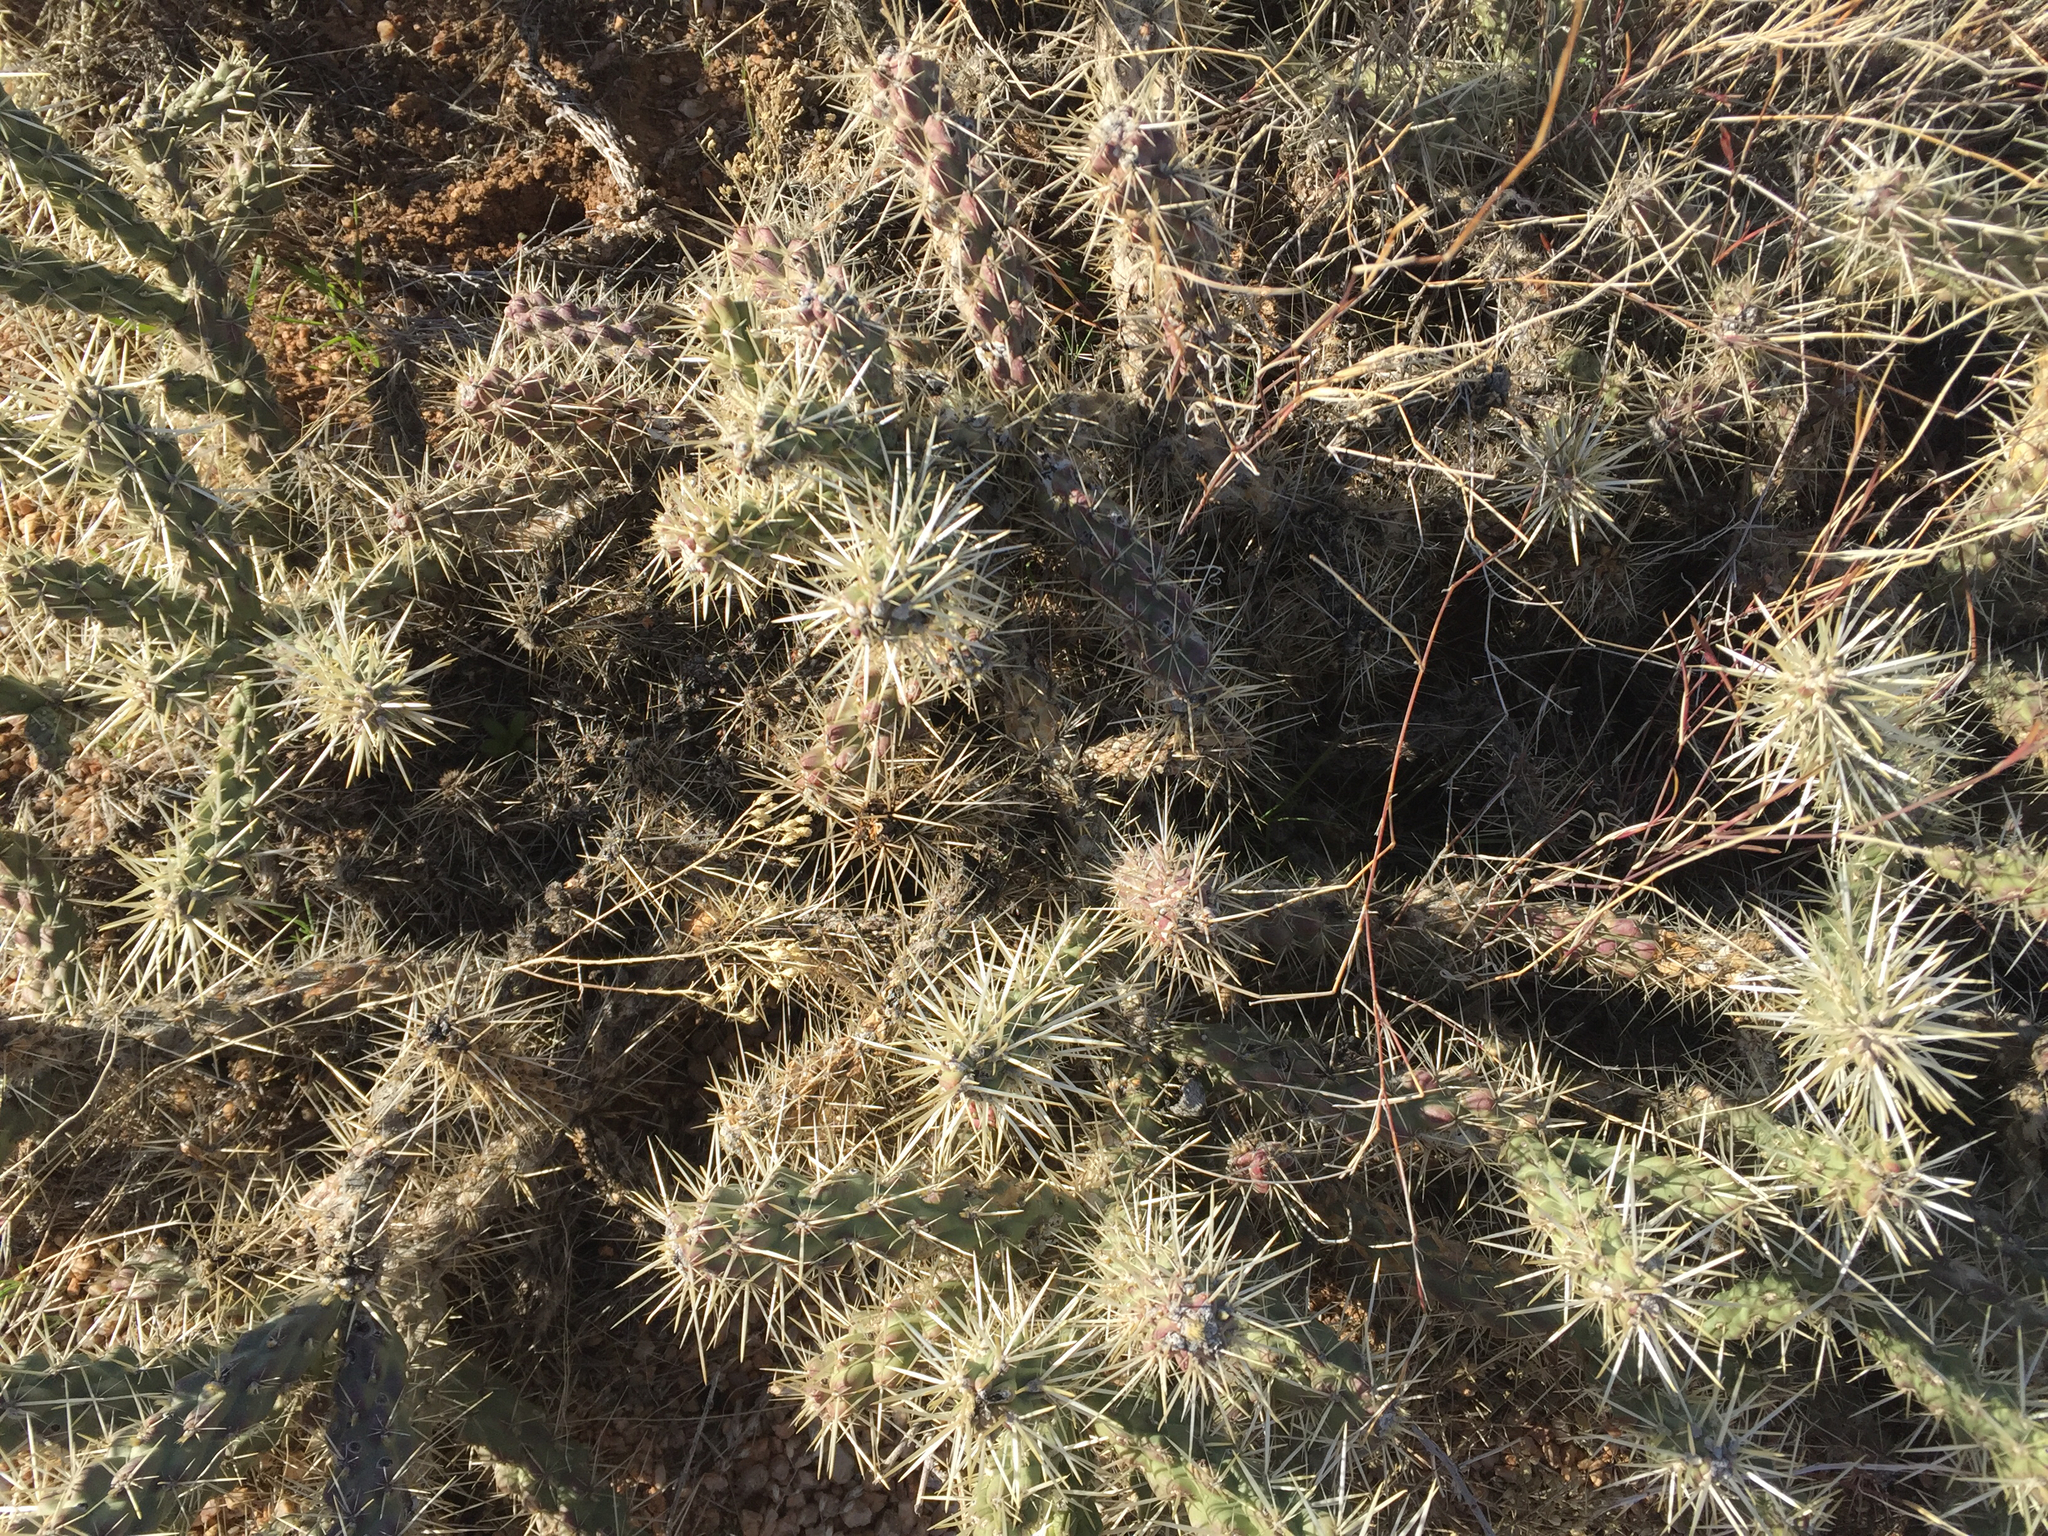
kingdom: Plantae
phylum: Tracheophyta
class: Magnoliopsida
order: Caryophyllales
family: Cactaceae
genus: Cylindropuntia
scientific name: Cylindropuntia whipplei
